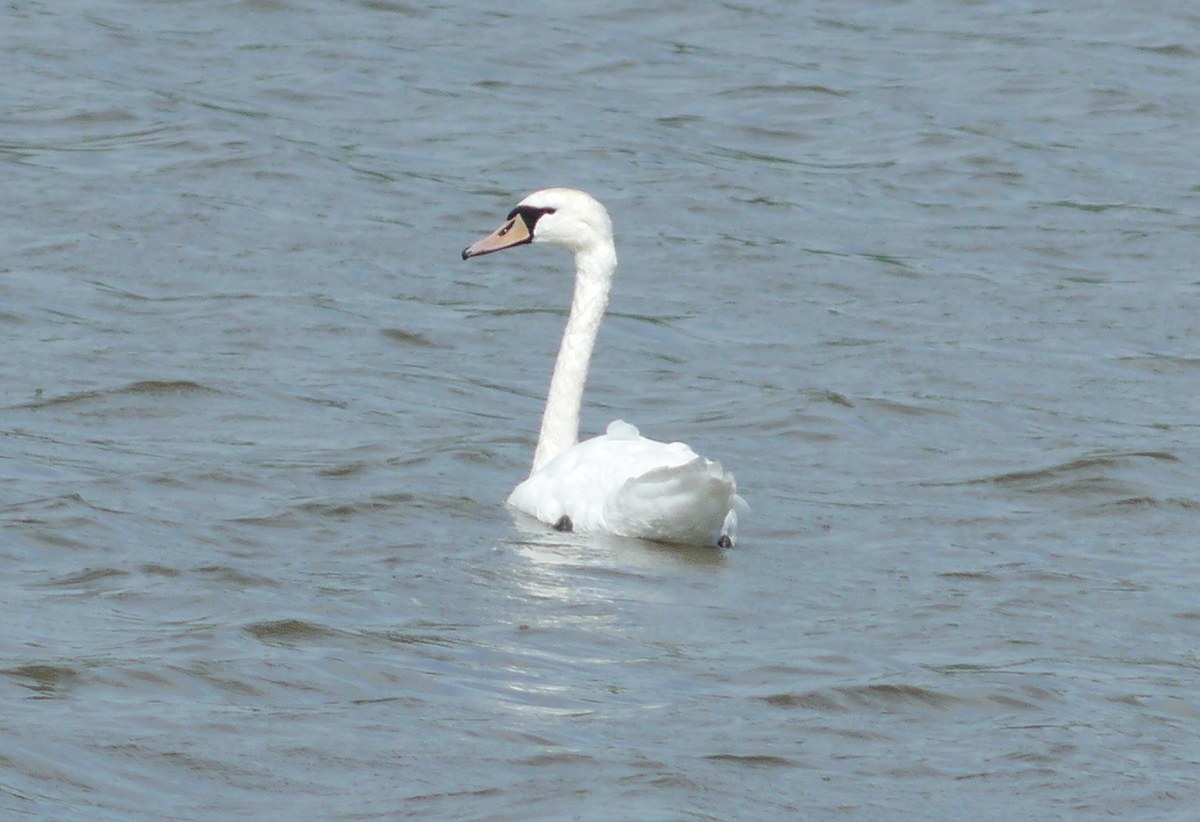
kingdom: Animalia
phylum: Chordata
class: Aves
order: Anseriformes
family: Anatidae
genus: Cygnus
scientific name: Cygnus olor
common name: Mute swan
